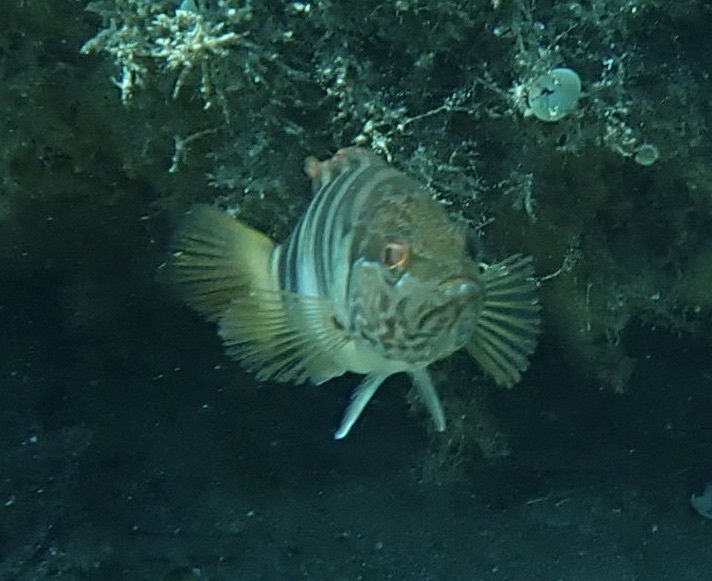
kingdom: Animalia
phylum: Chordata
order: Perciformes
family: Serranidae
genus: Serranus
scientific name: Serranus scriba
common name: Painted comber
